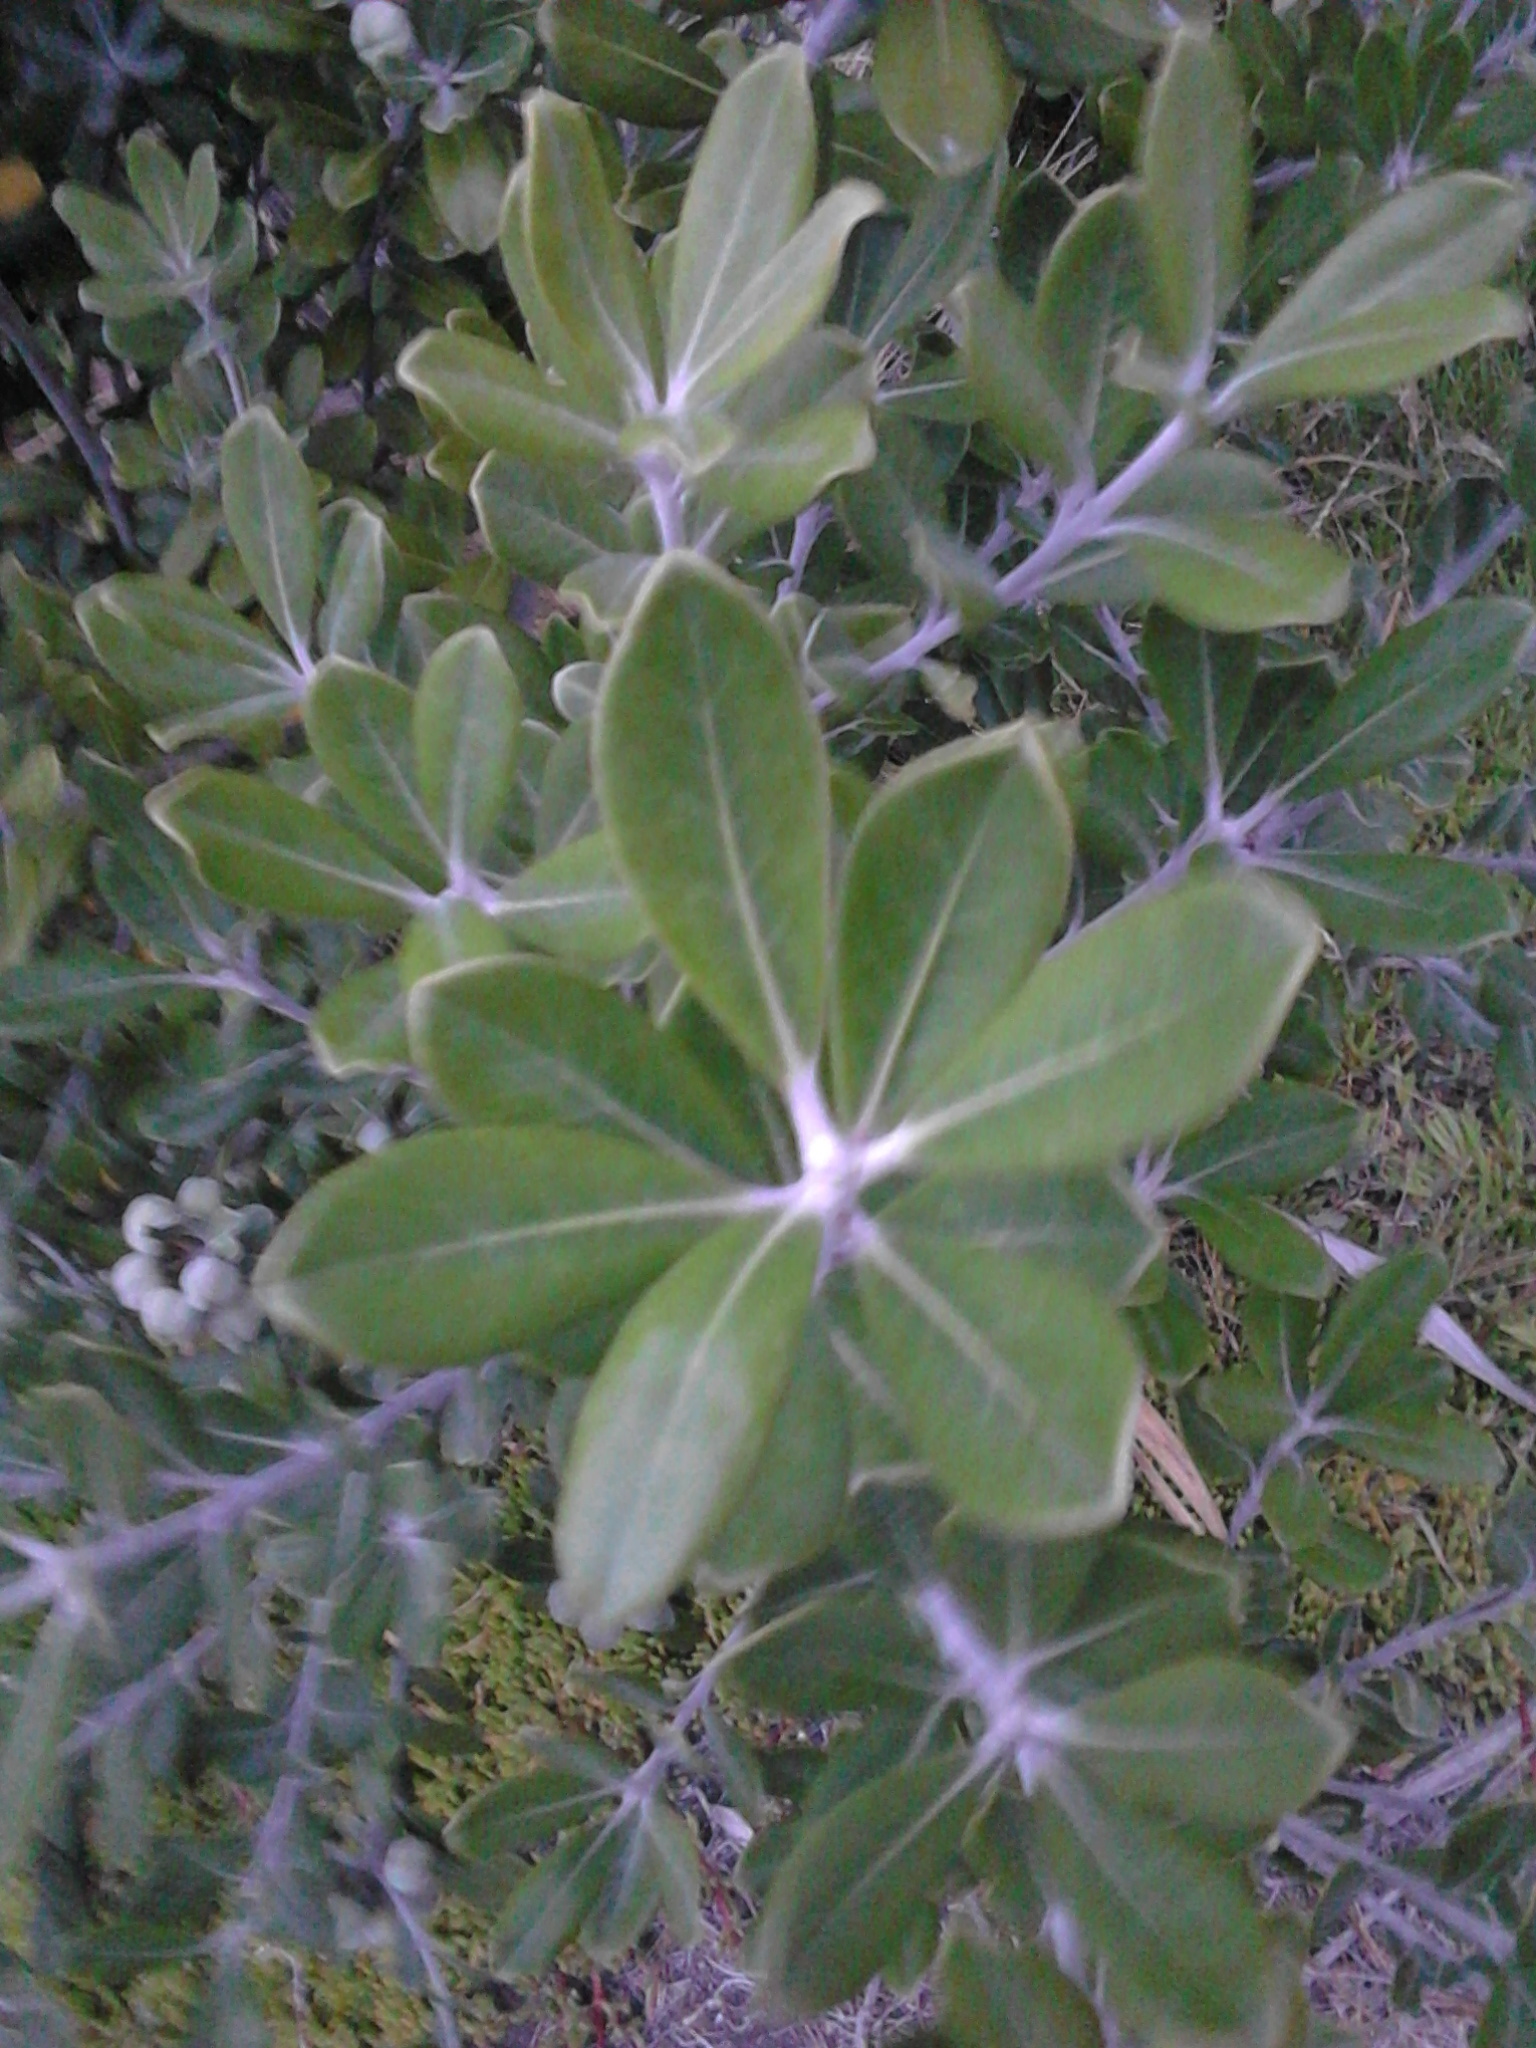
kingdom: Plantae
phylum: Tracheophyta
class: Magnoliopsida
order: Apiales
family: Pittosporaceae
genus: Pittosporum
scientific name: Pittosporum crassifolium
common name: Karo
